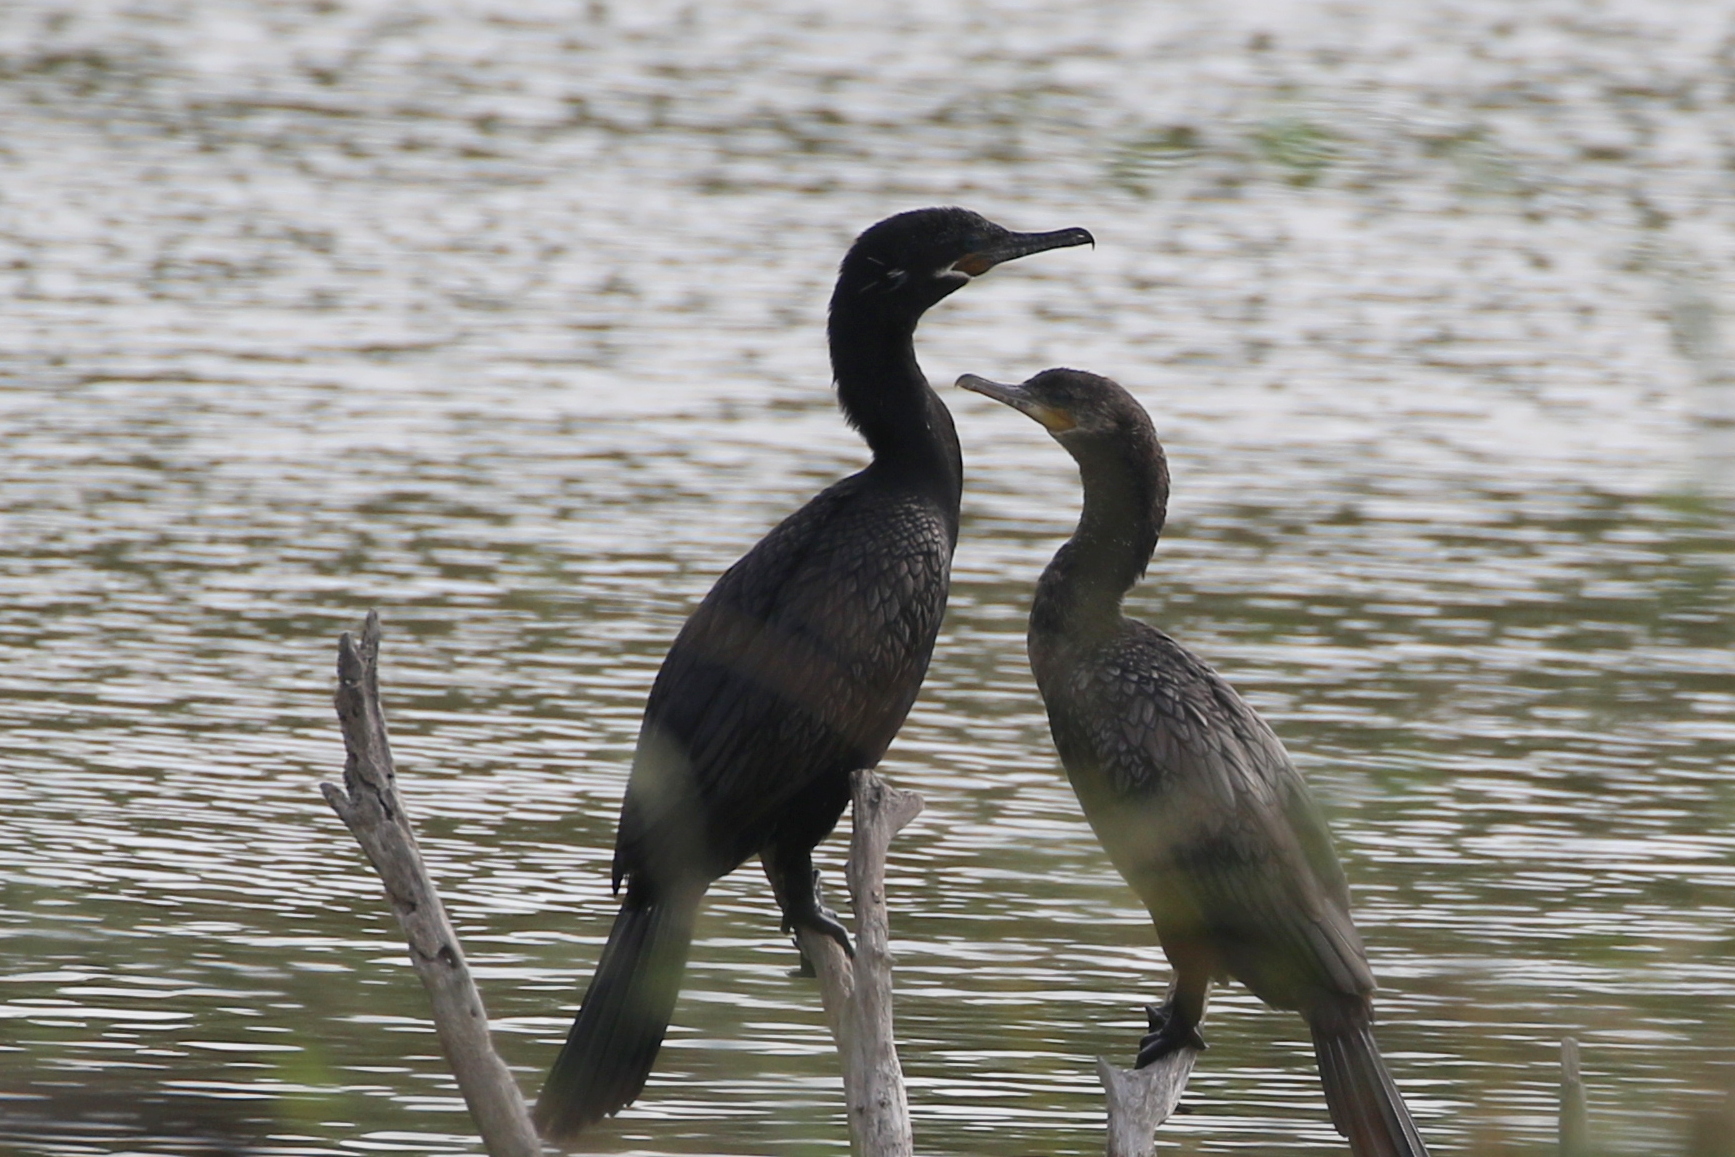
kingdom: Animalia
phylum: Chordata
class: Aves
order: Suliformes
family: Phalacrocoracidae
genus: Phalacrocorax
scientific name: Phalacrocorax brasilianus
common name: Neotropic cormorant
